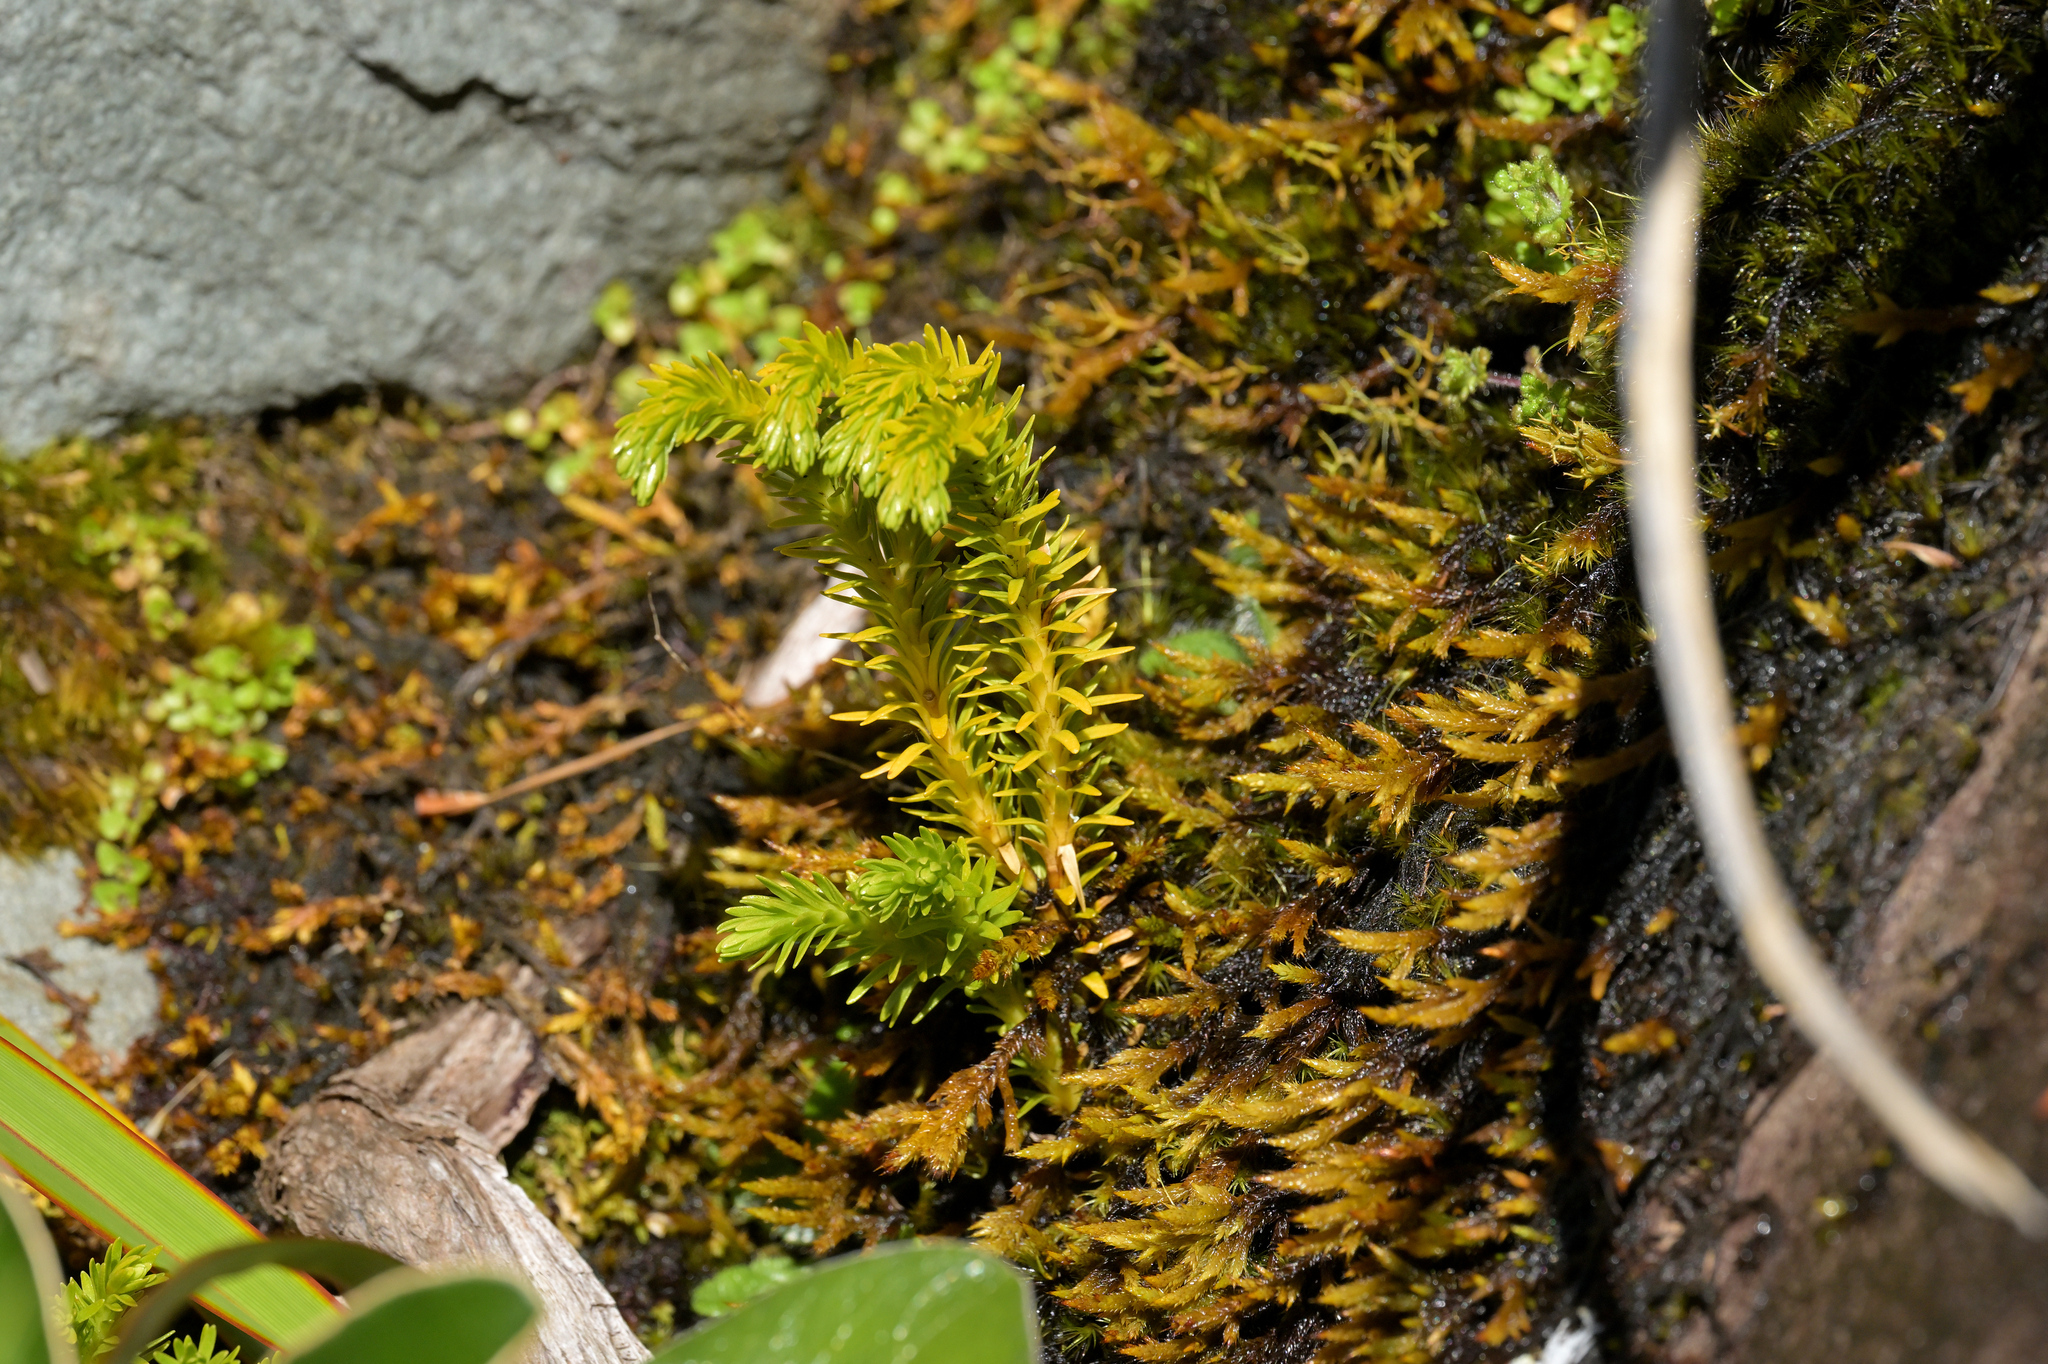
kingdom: Plantae
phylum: Tracheophyta
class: Lycopodiopsida
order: Lycopodiales
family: Lycopodiaceae
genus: Phlegmariurus
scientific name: Phlegmariurus varius
